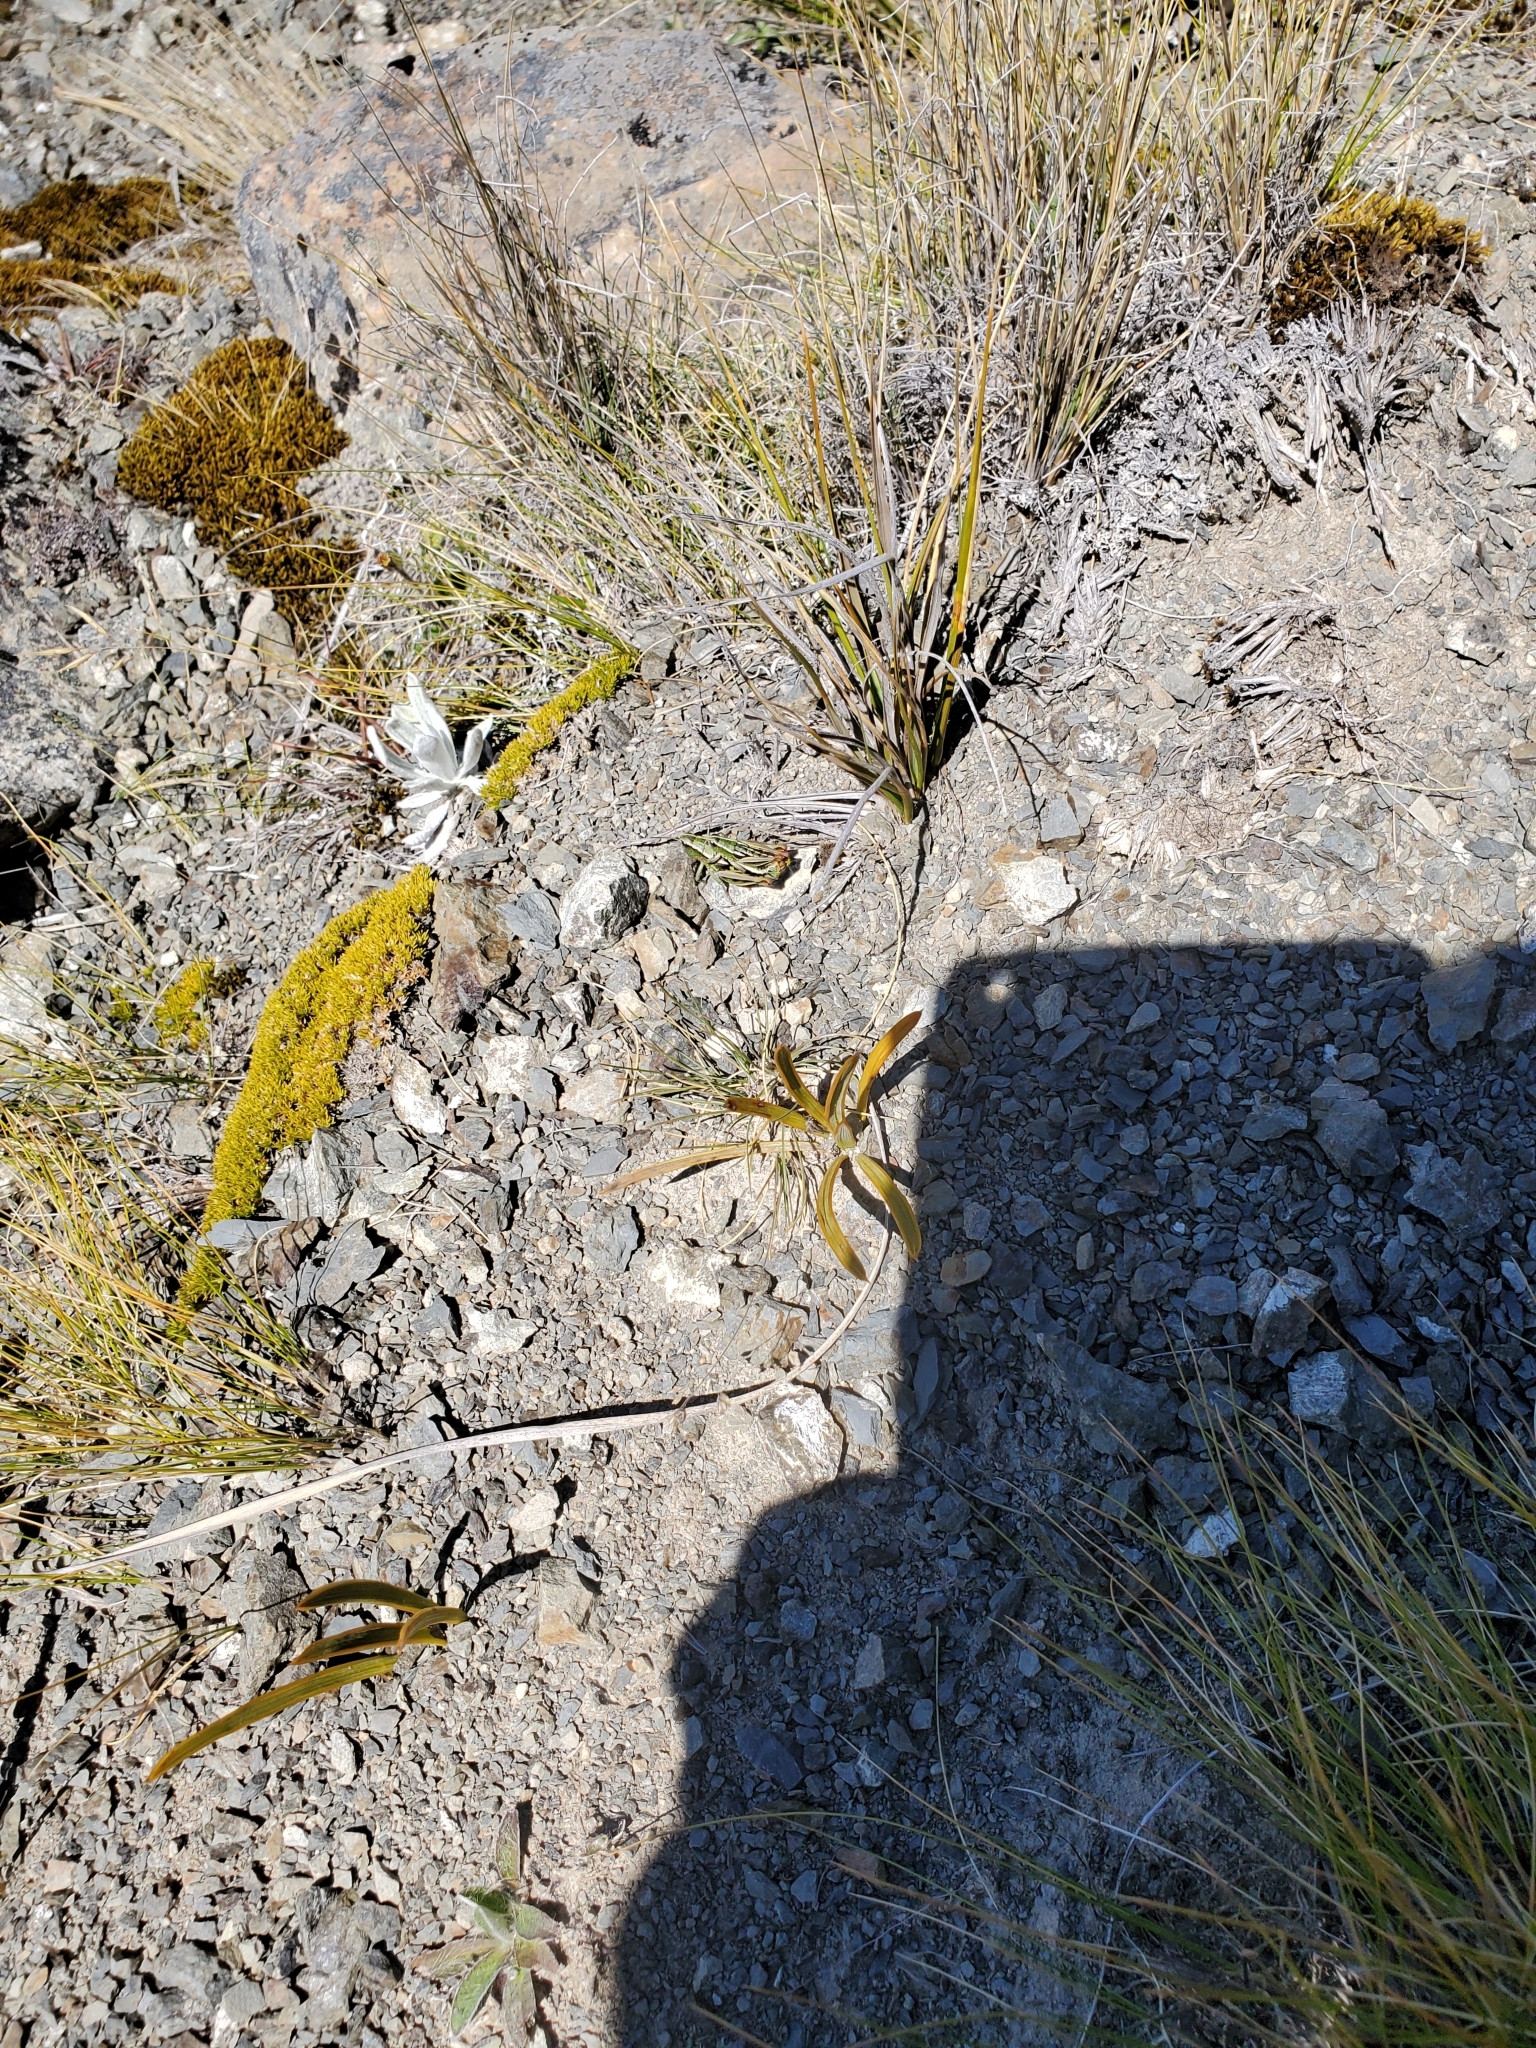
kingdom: Animalia
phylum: Arthropoda
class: Insecta
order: Orthoptera
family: Acrididae
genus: Sigaus
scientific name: Sigaus
